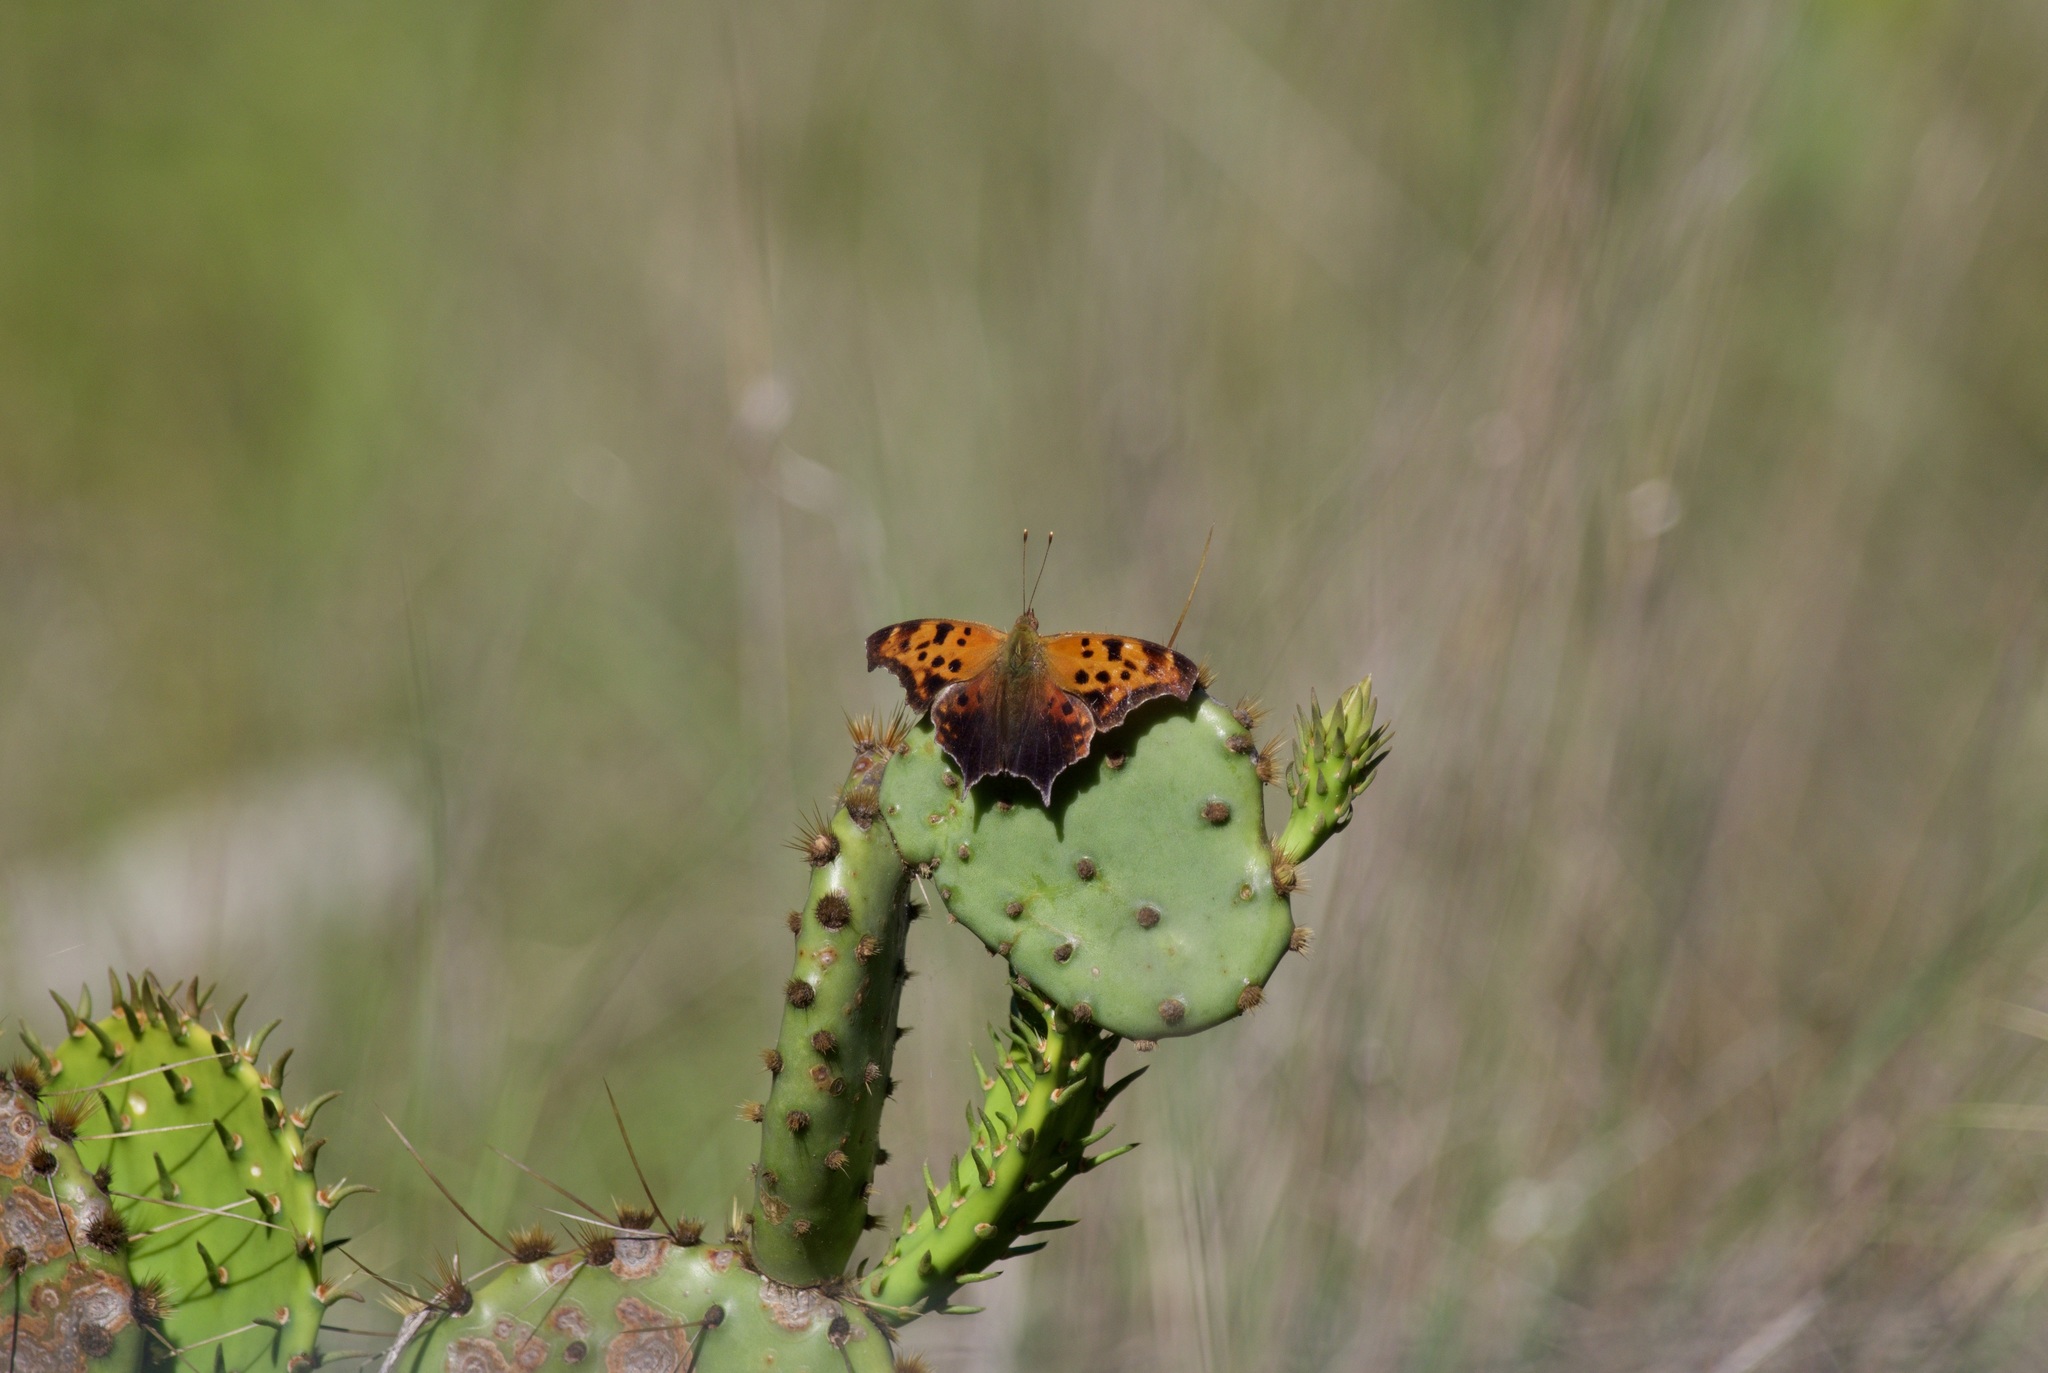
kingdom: Animalia
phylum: Arthropoda
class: Insecta
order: Lepidoptera
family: Nymphalidae
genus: Polygonia
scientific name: Polygonia interrogationis
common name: Question mark
